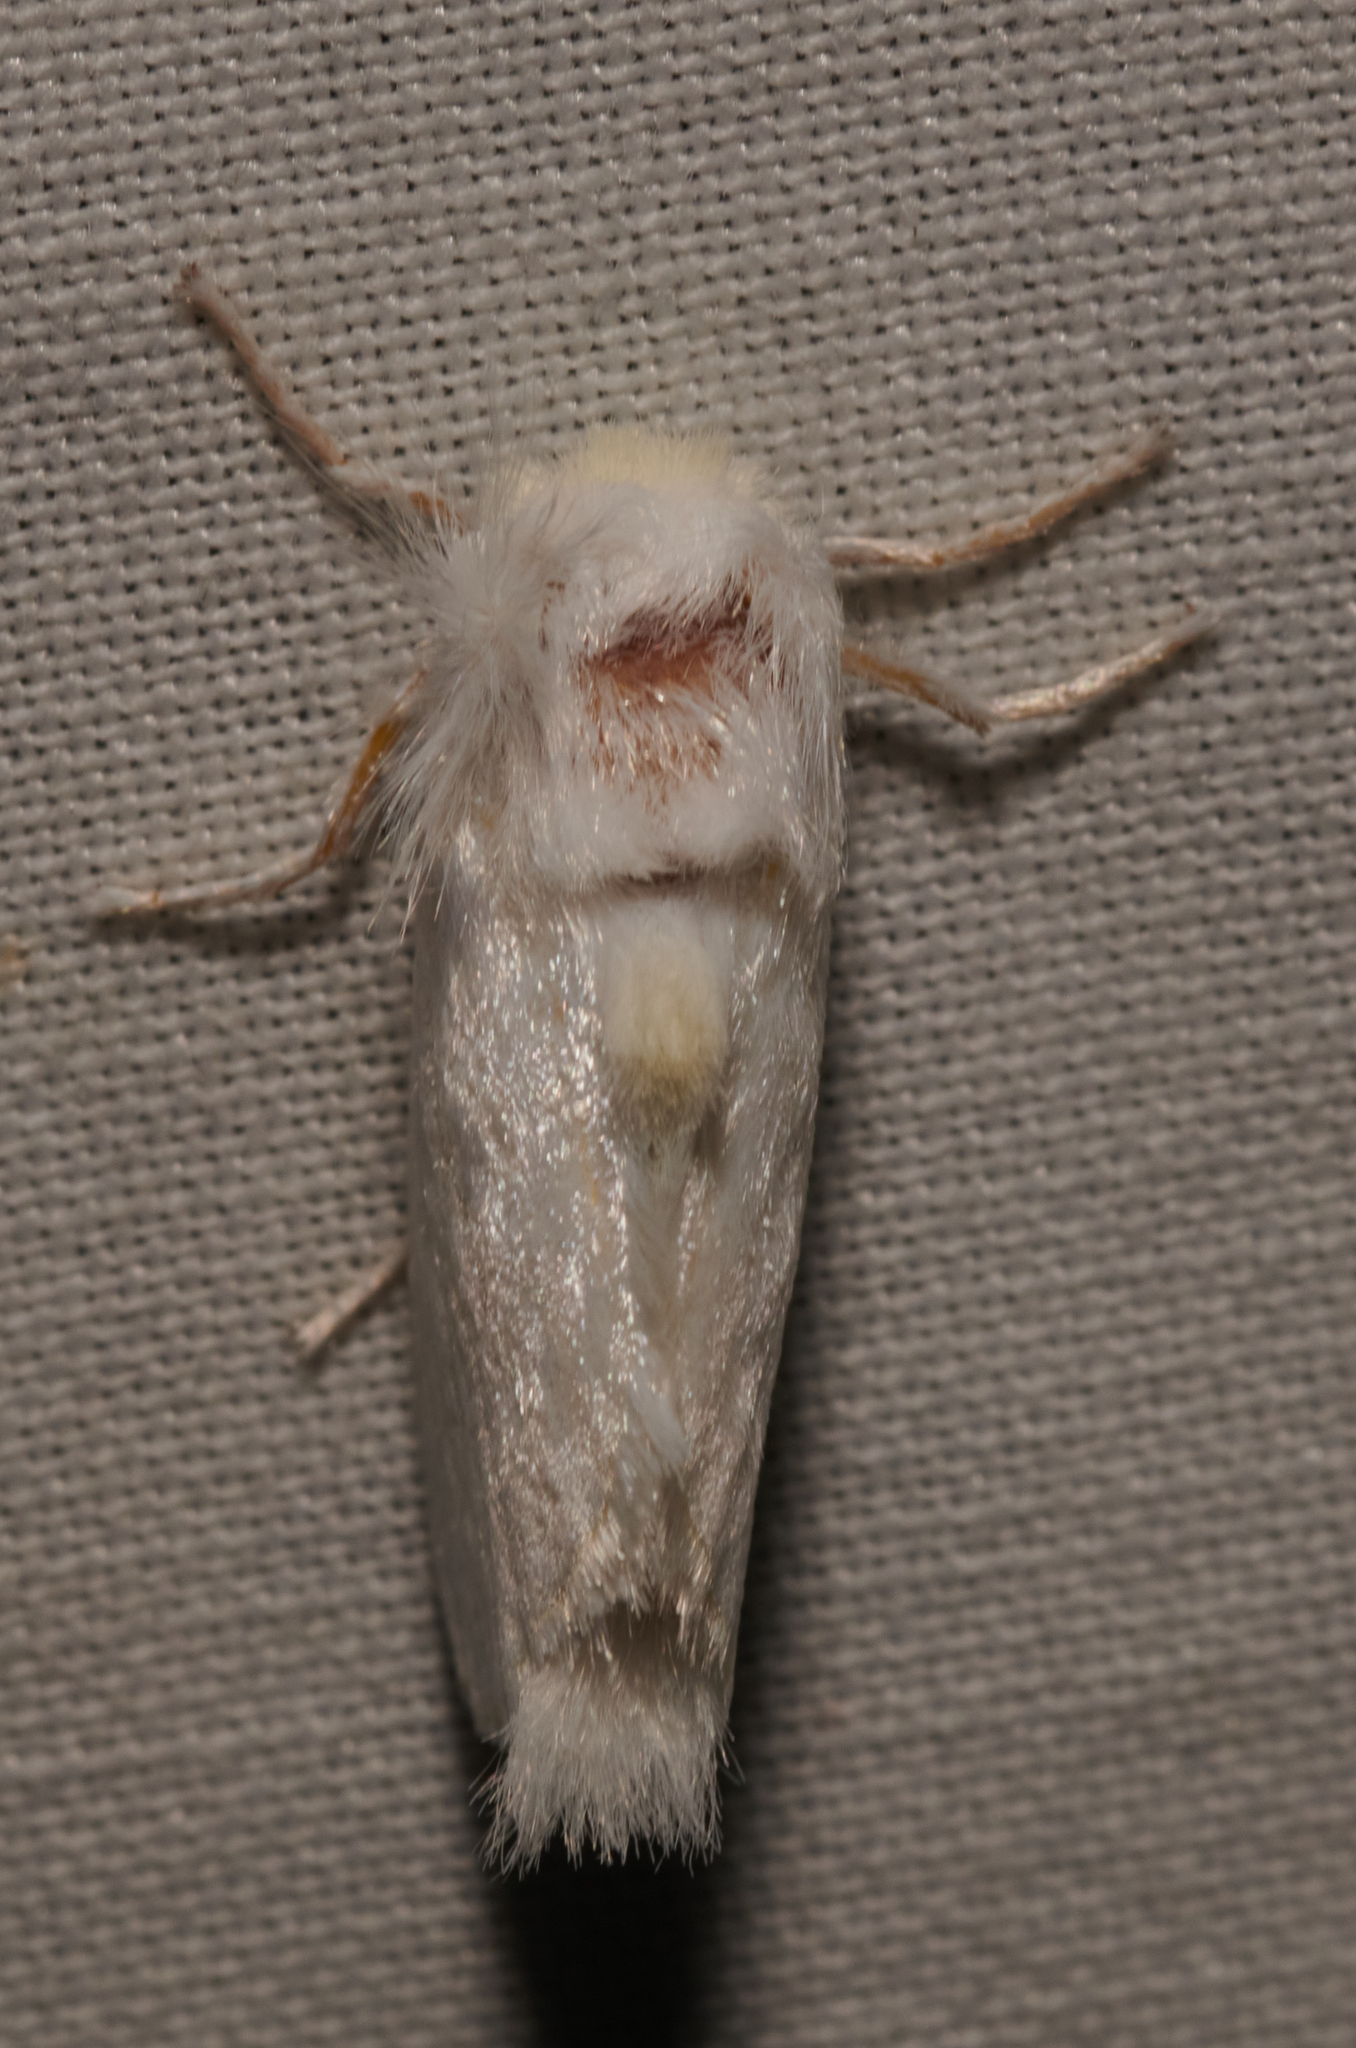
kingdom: Animalia
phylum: Arthropoda
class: Insecta
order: Lepidoptera
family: Megalopygidae
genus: Norape
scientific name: Norape cretata
